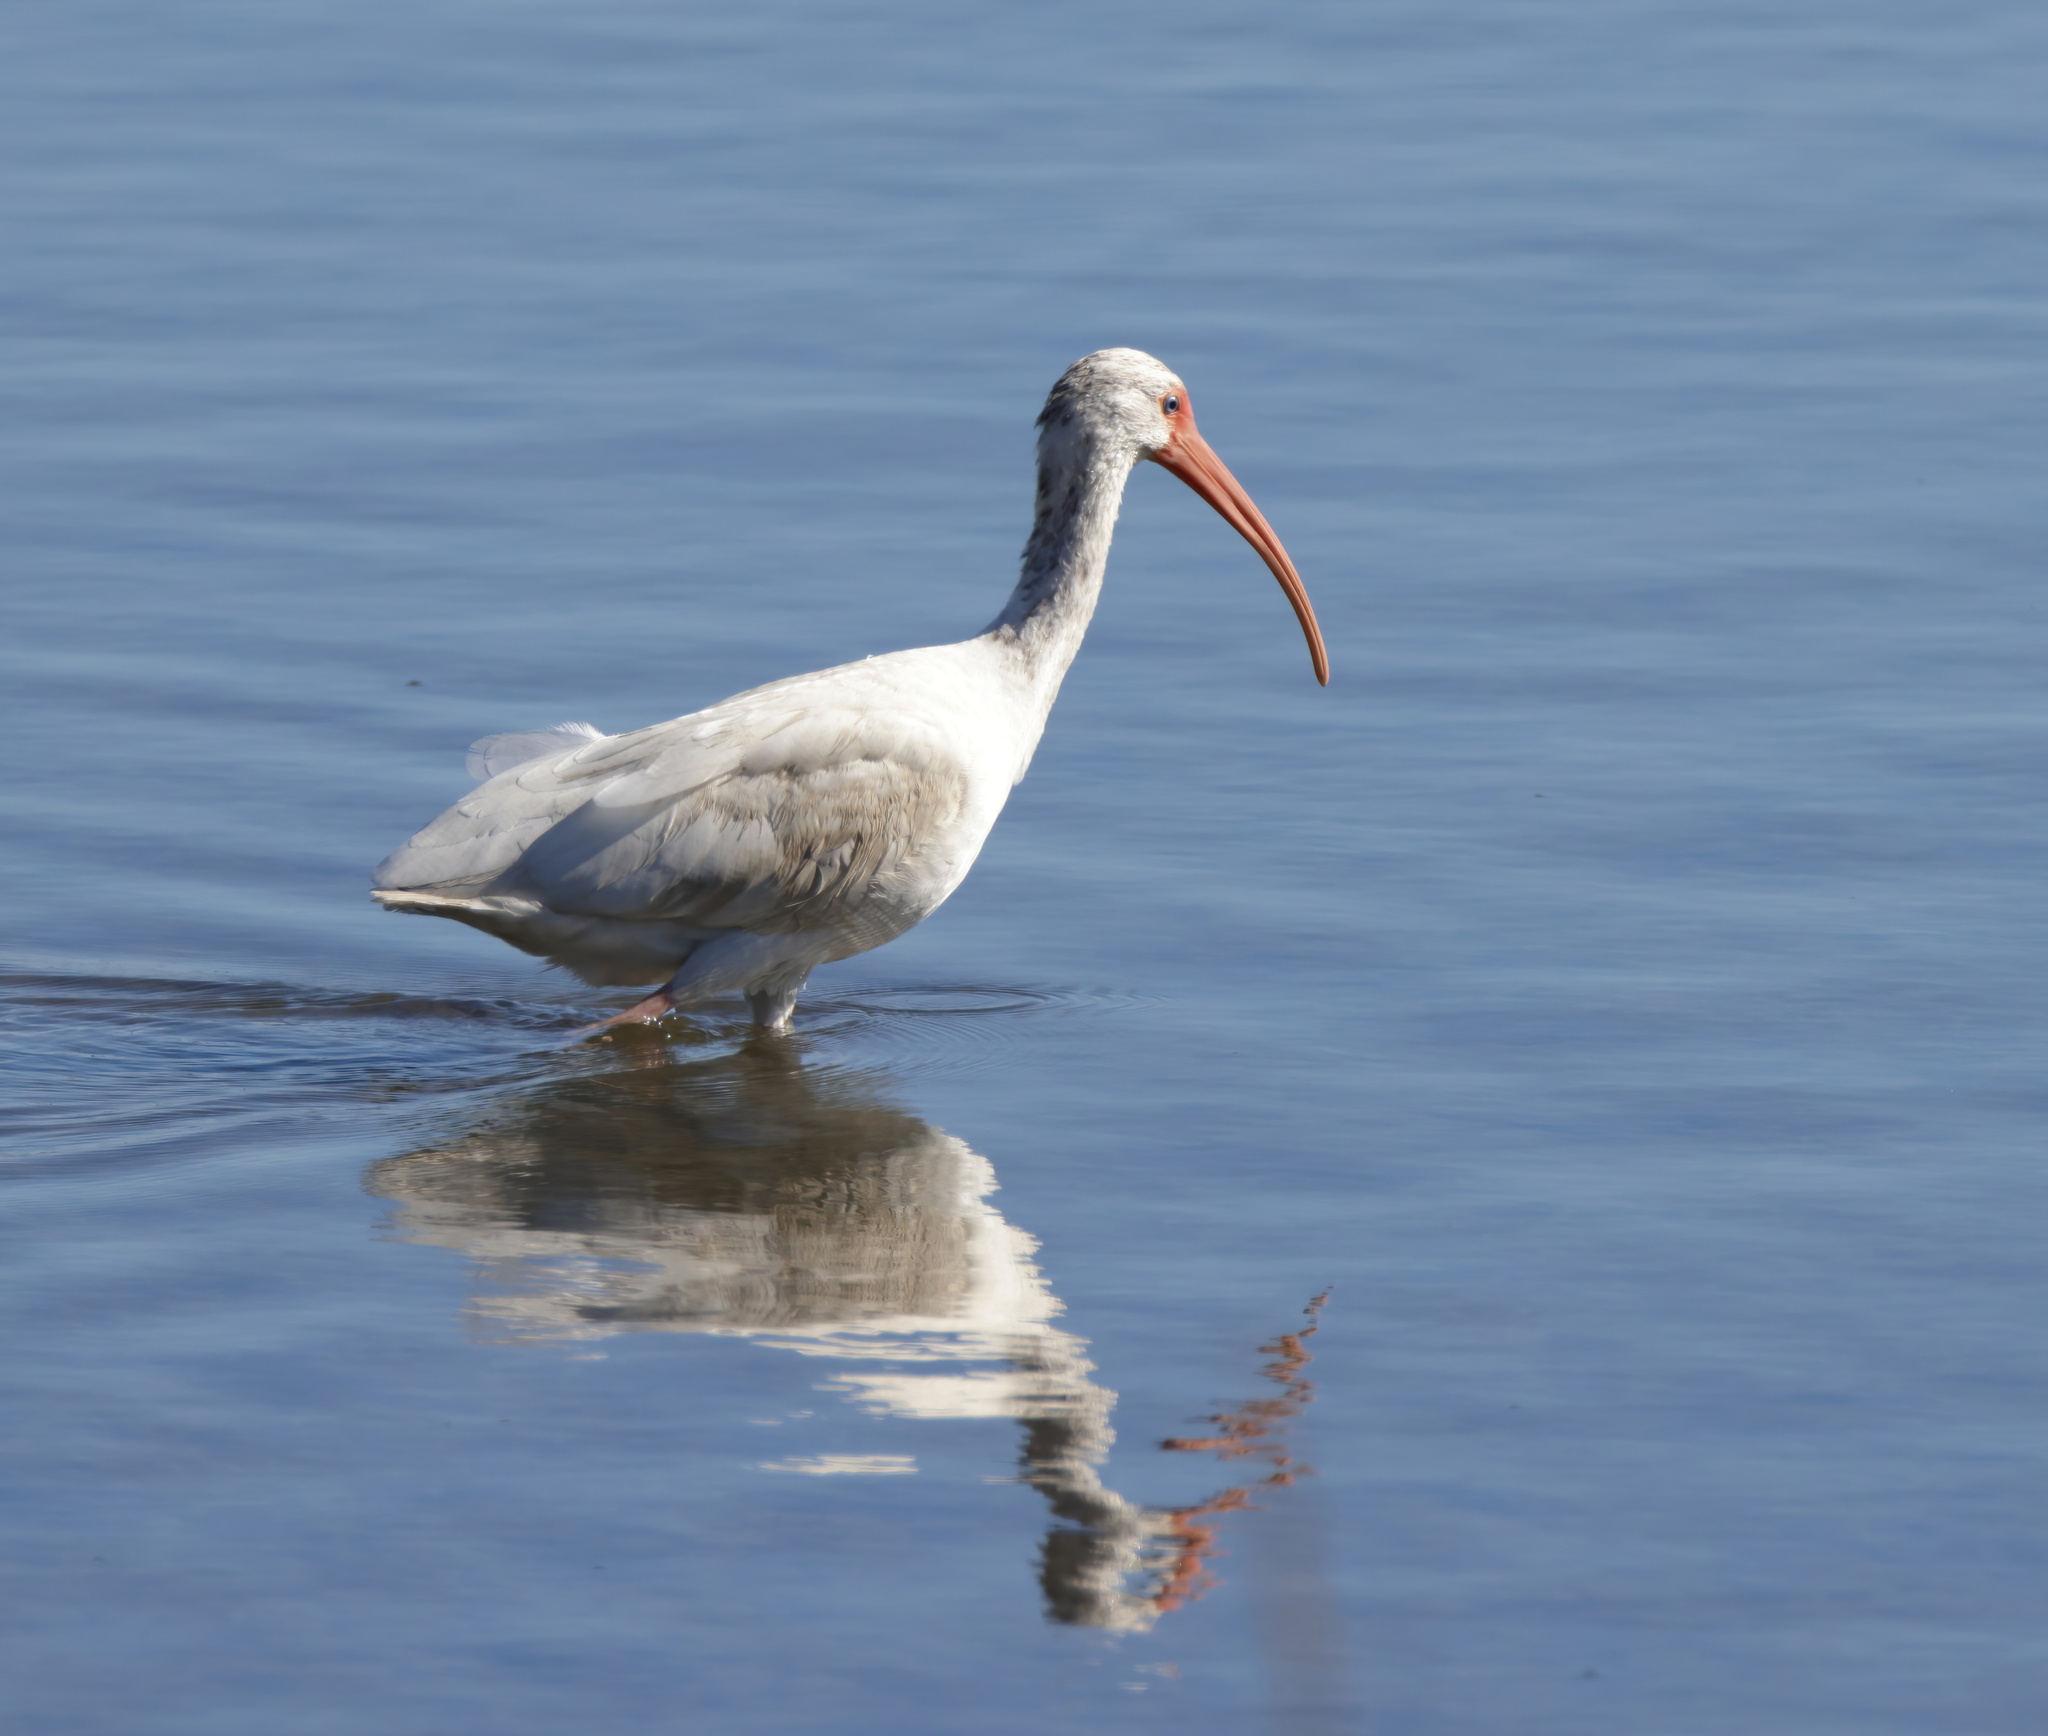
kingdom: Animalia
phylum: Chordata
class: Aves
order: Pelecaniformes
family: Threskiornithidae
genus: Eudocimus
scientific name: Eudocimus albus
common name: White ibis
